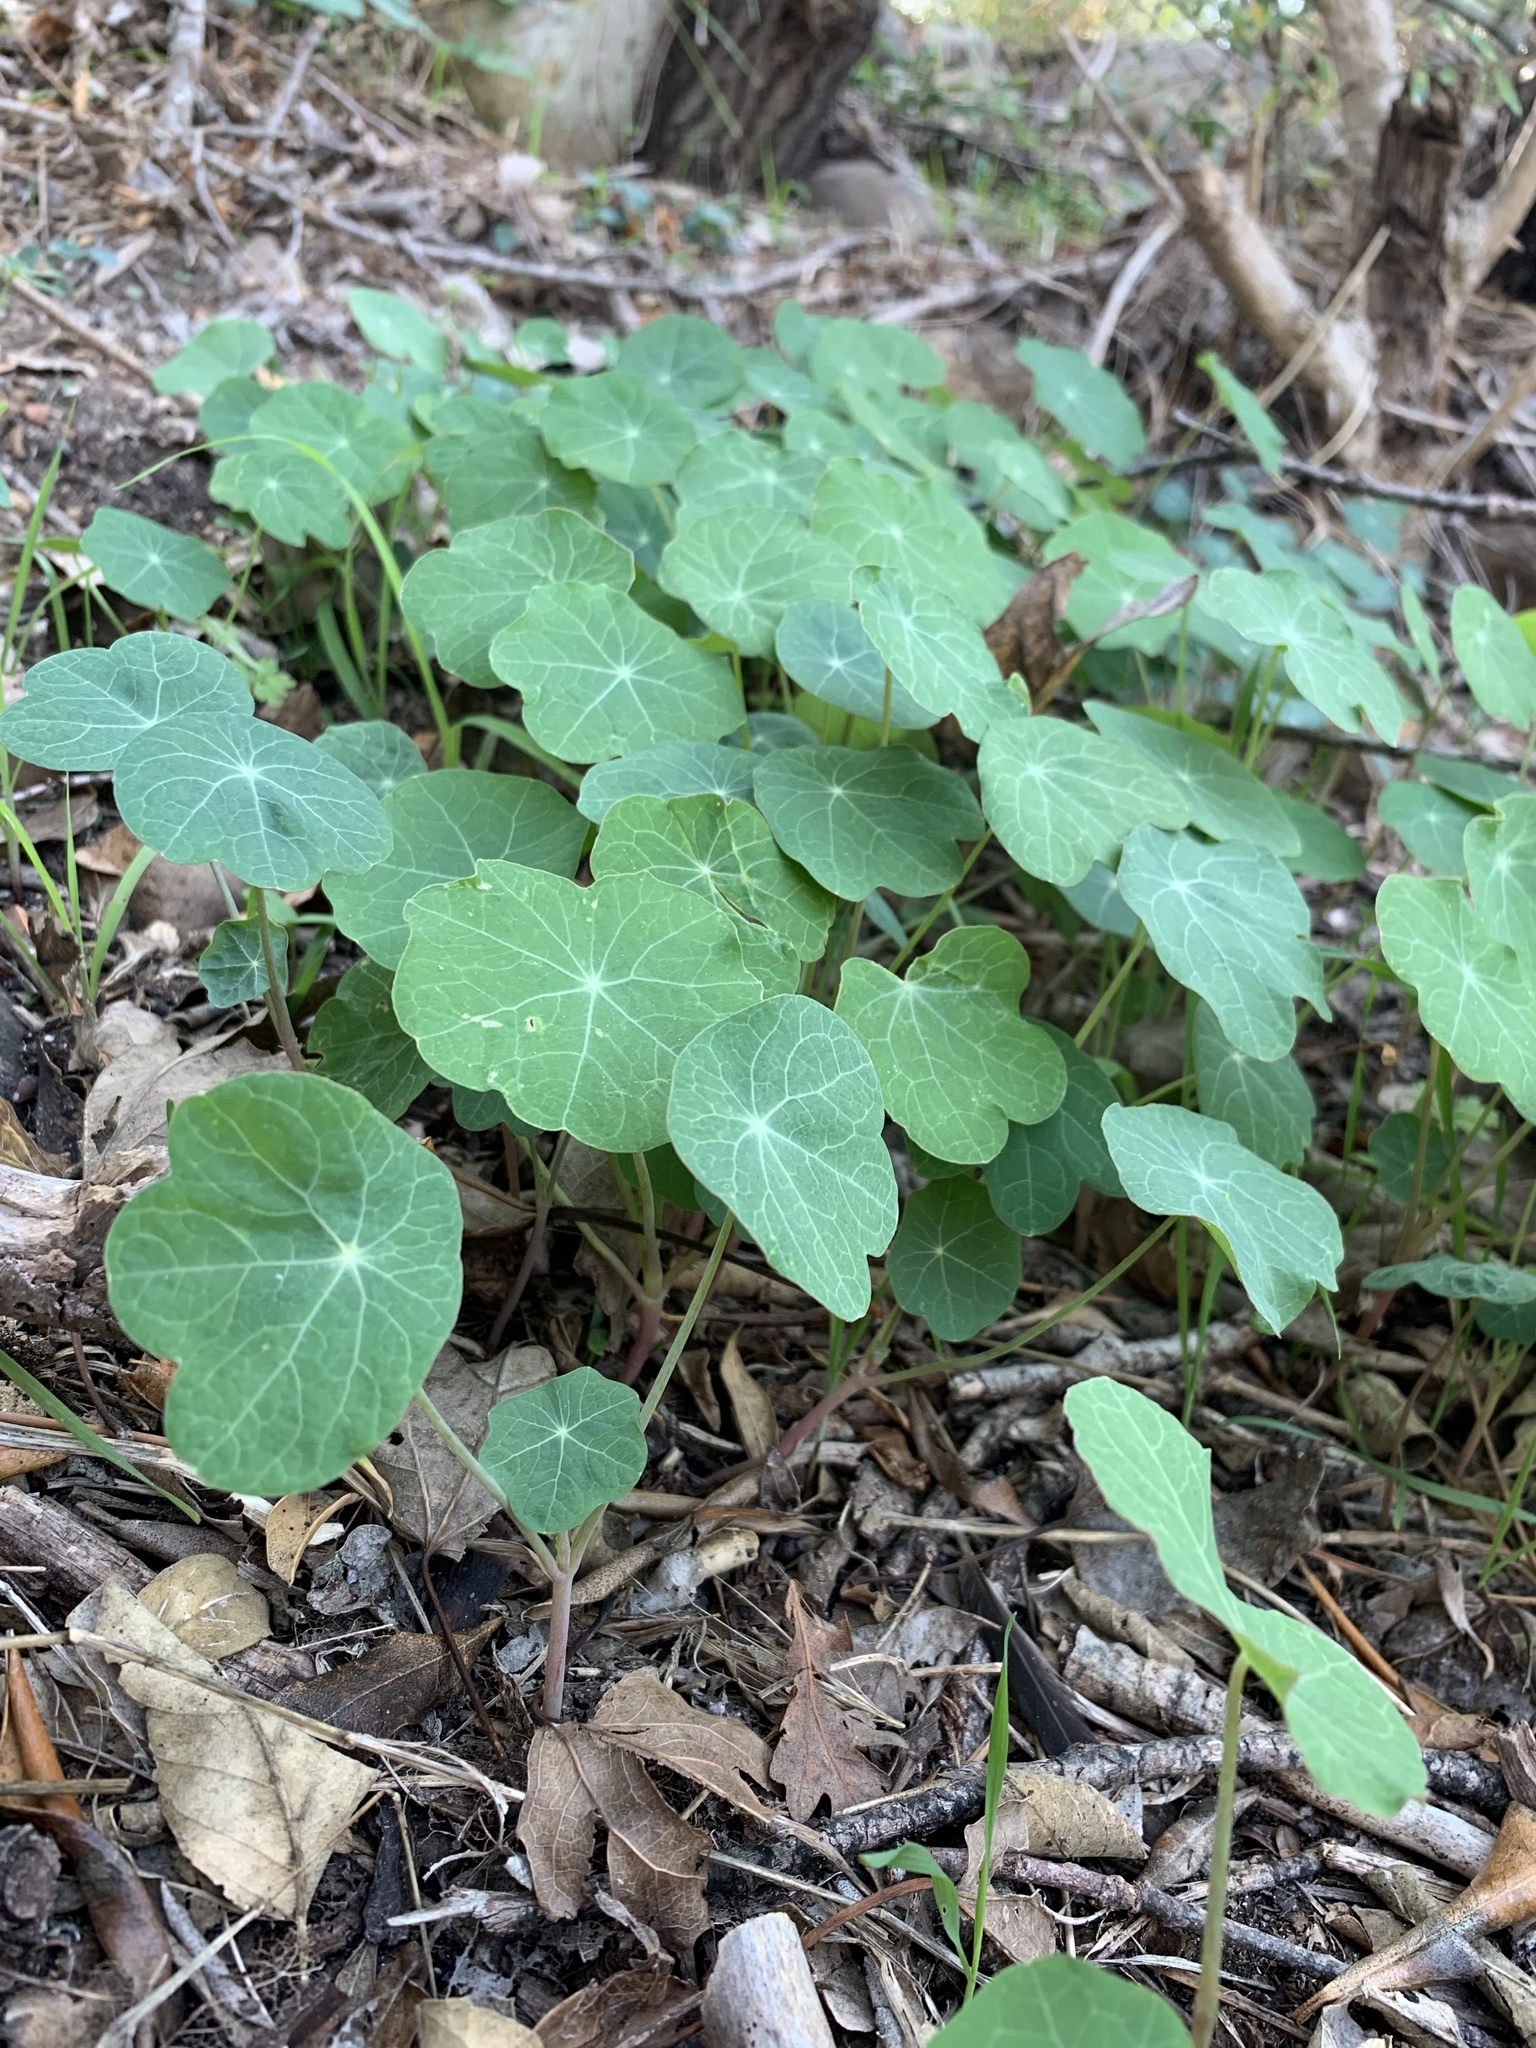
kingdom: Plantae
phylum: Tracheophyta
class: Magnoliopsida
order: Brassicales
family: Tropaeolaceae
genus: Tropaeolum
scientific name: Tropaeolum majus
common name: Nasturtium
